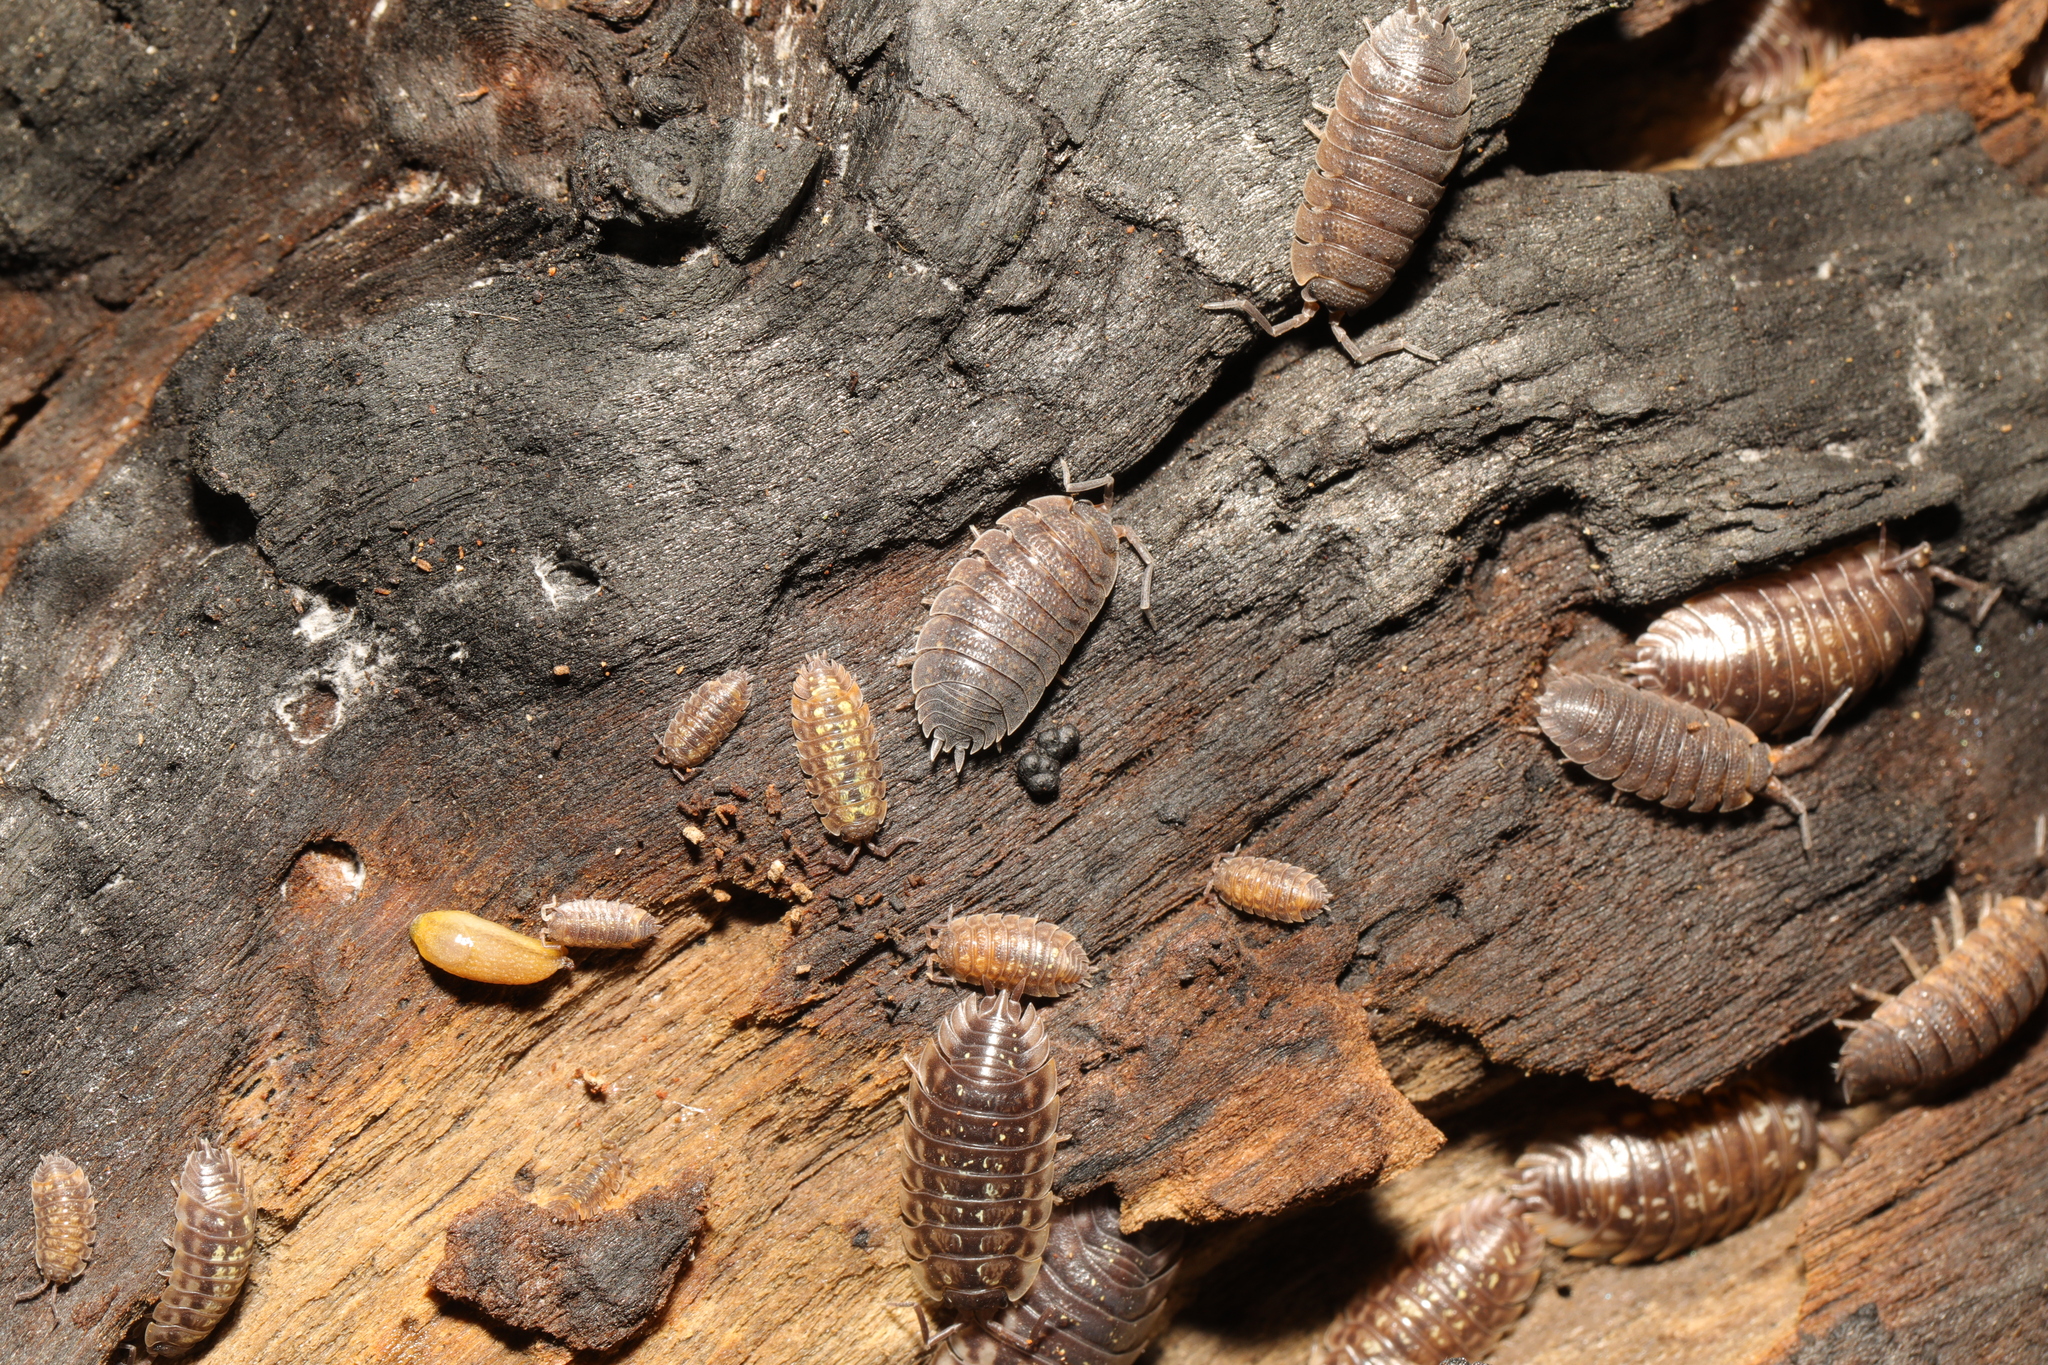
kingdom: Animalia
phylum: Arthropoda
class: Malacostraca
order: Isopoda
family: Porcellionidae
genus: Porcellio
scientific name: Porcellio scaber
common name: Common rough woodlouse
